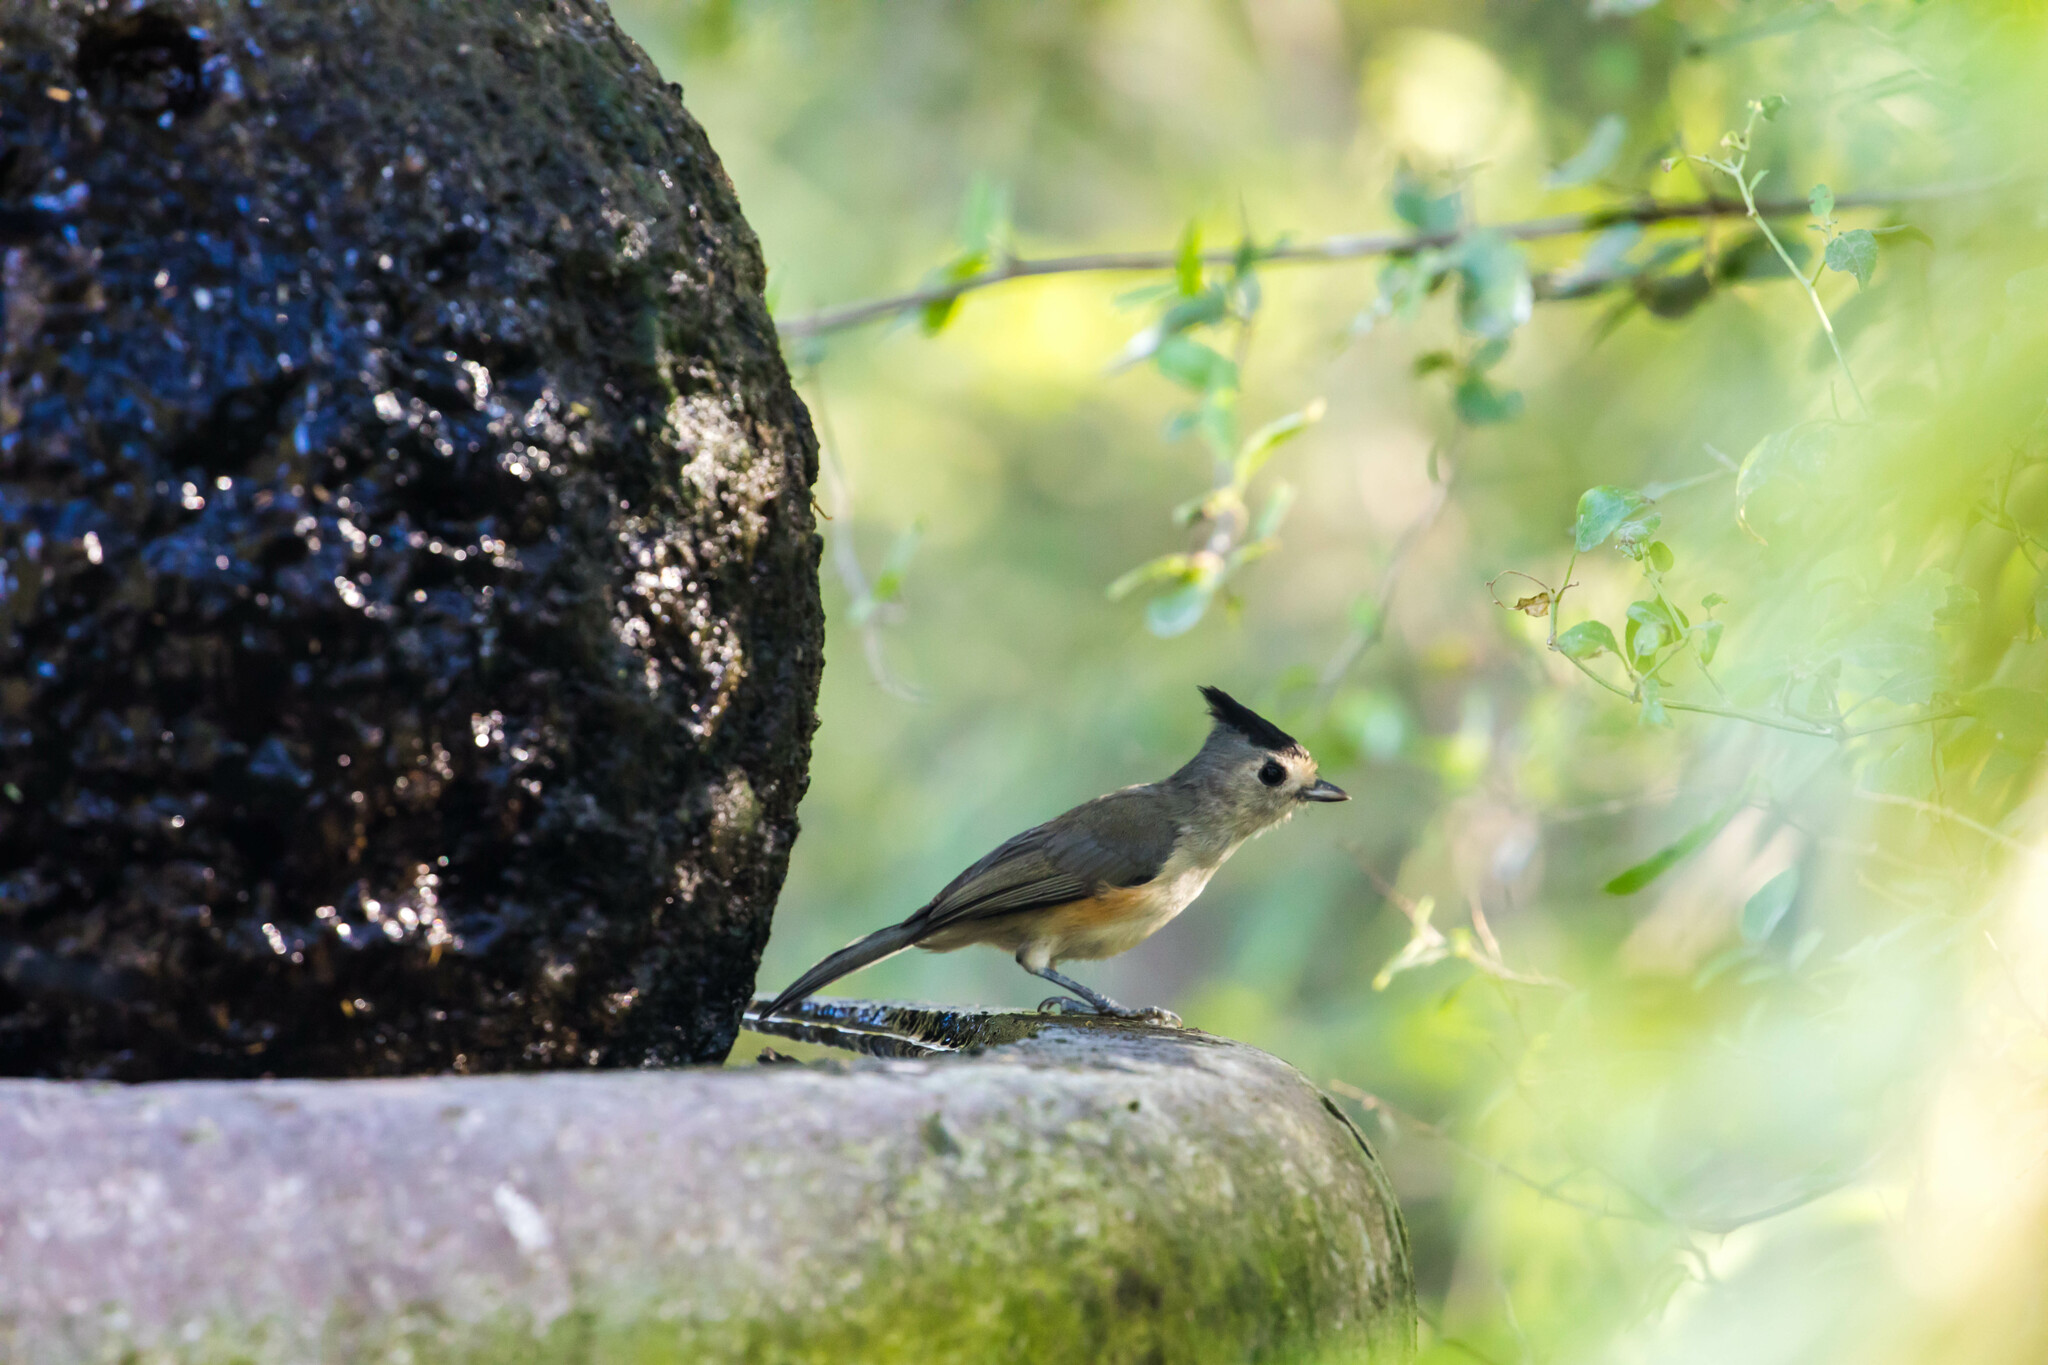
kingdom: Animalia
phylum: Chordata
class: Aves
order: Passeriformes
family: Paridae
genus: Baeolophus
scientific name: Baeolophus atricristatus
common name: Black-crested titmouse
